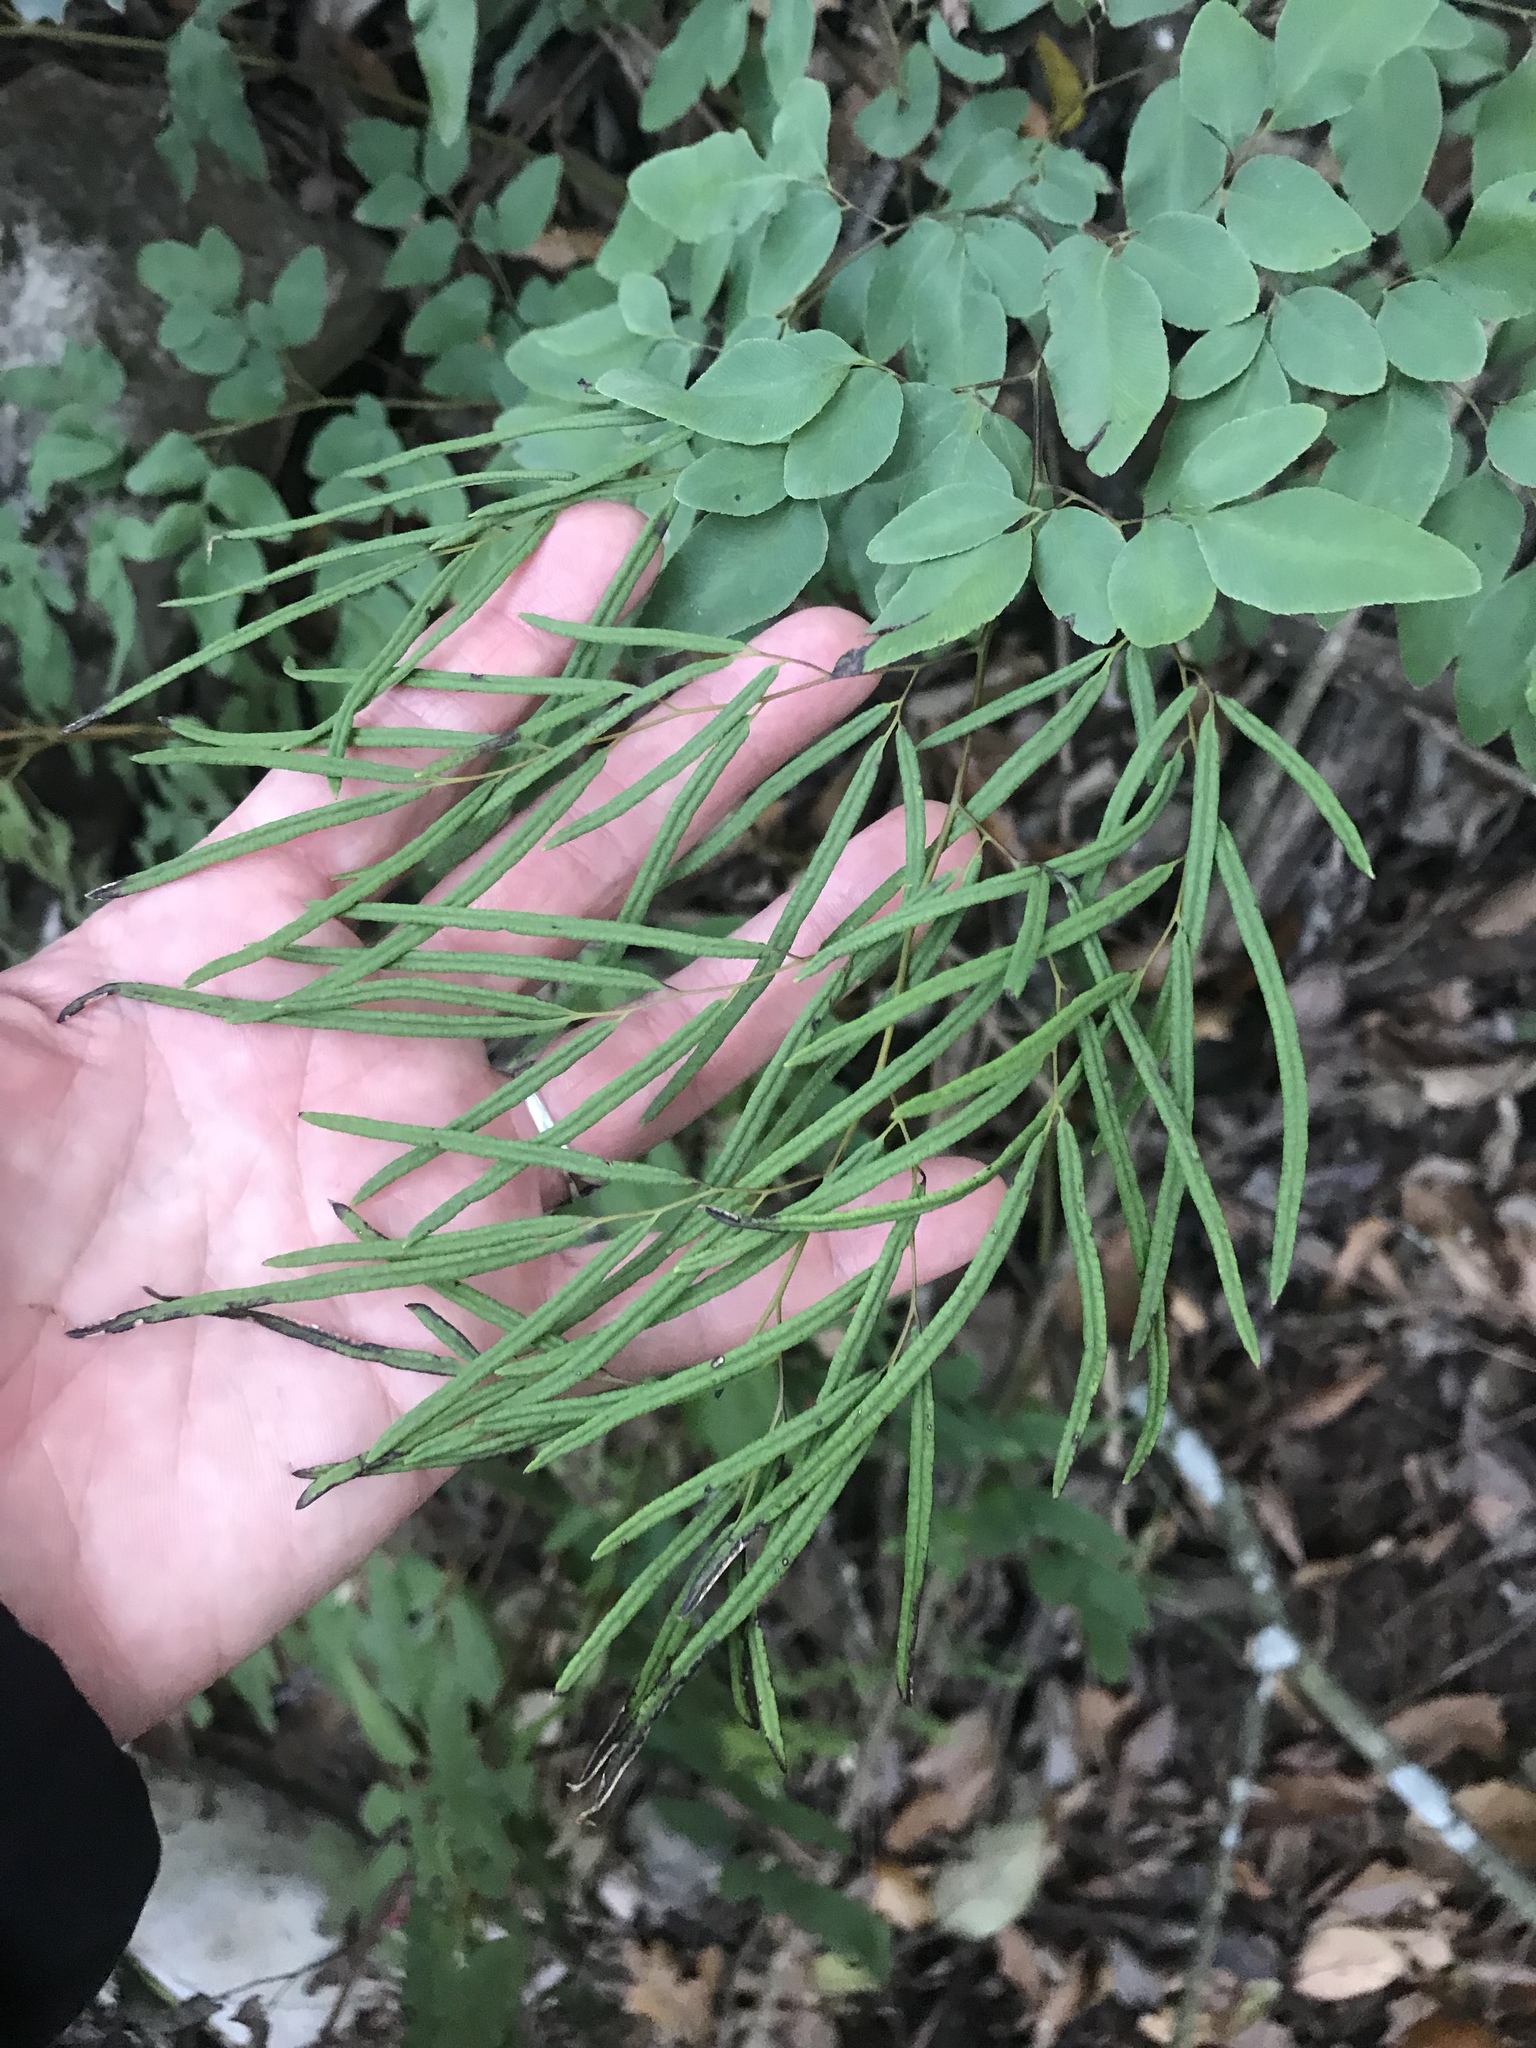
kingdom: Plantae
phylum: Tracheophyta
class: Polypodiopsida
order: Polypodiales
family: Pteridaceae
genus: Llavea
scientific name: Llavea cordifolia
